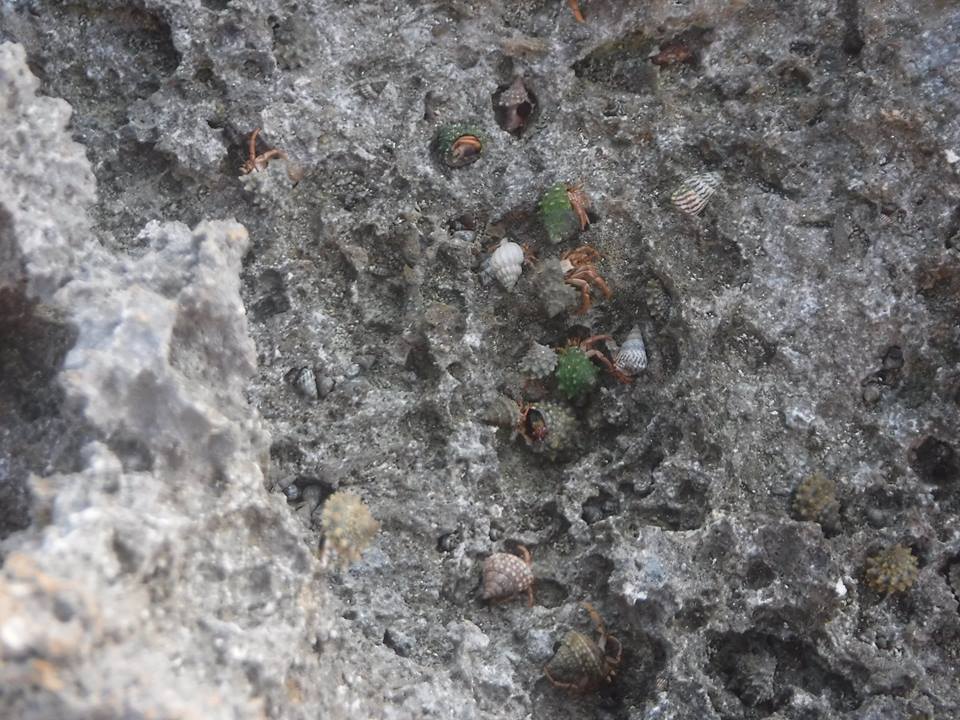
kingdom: Animalia
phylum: Arthropoda
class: Malacostraca
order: Decapoda
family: Coenobitidae
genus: Coenobita
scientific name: Coenobita clypeatus
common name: Caribbean hermit crab
